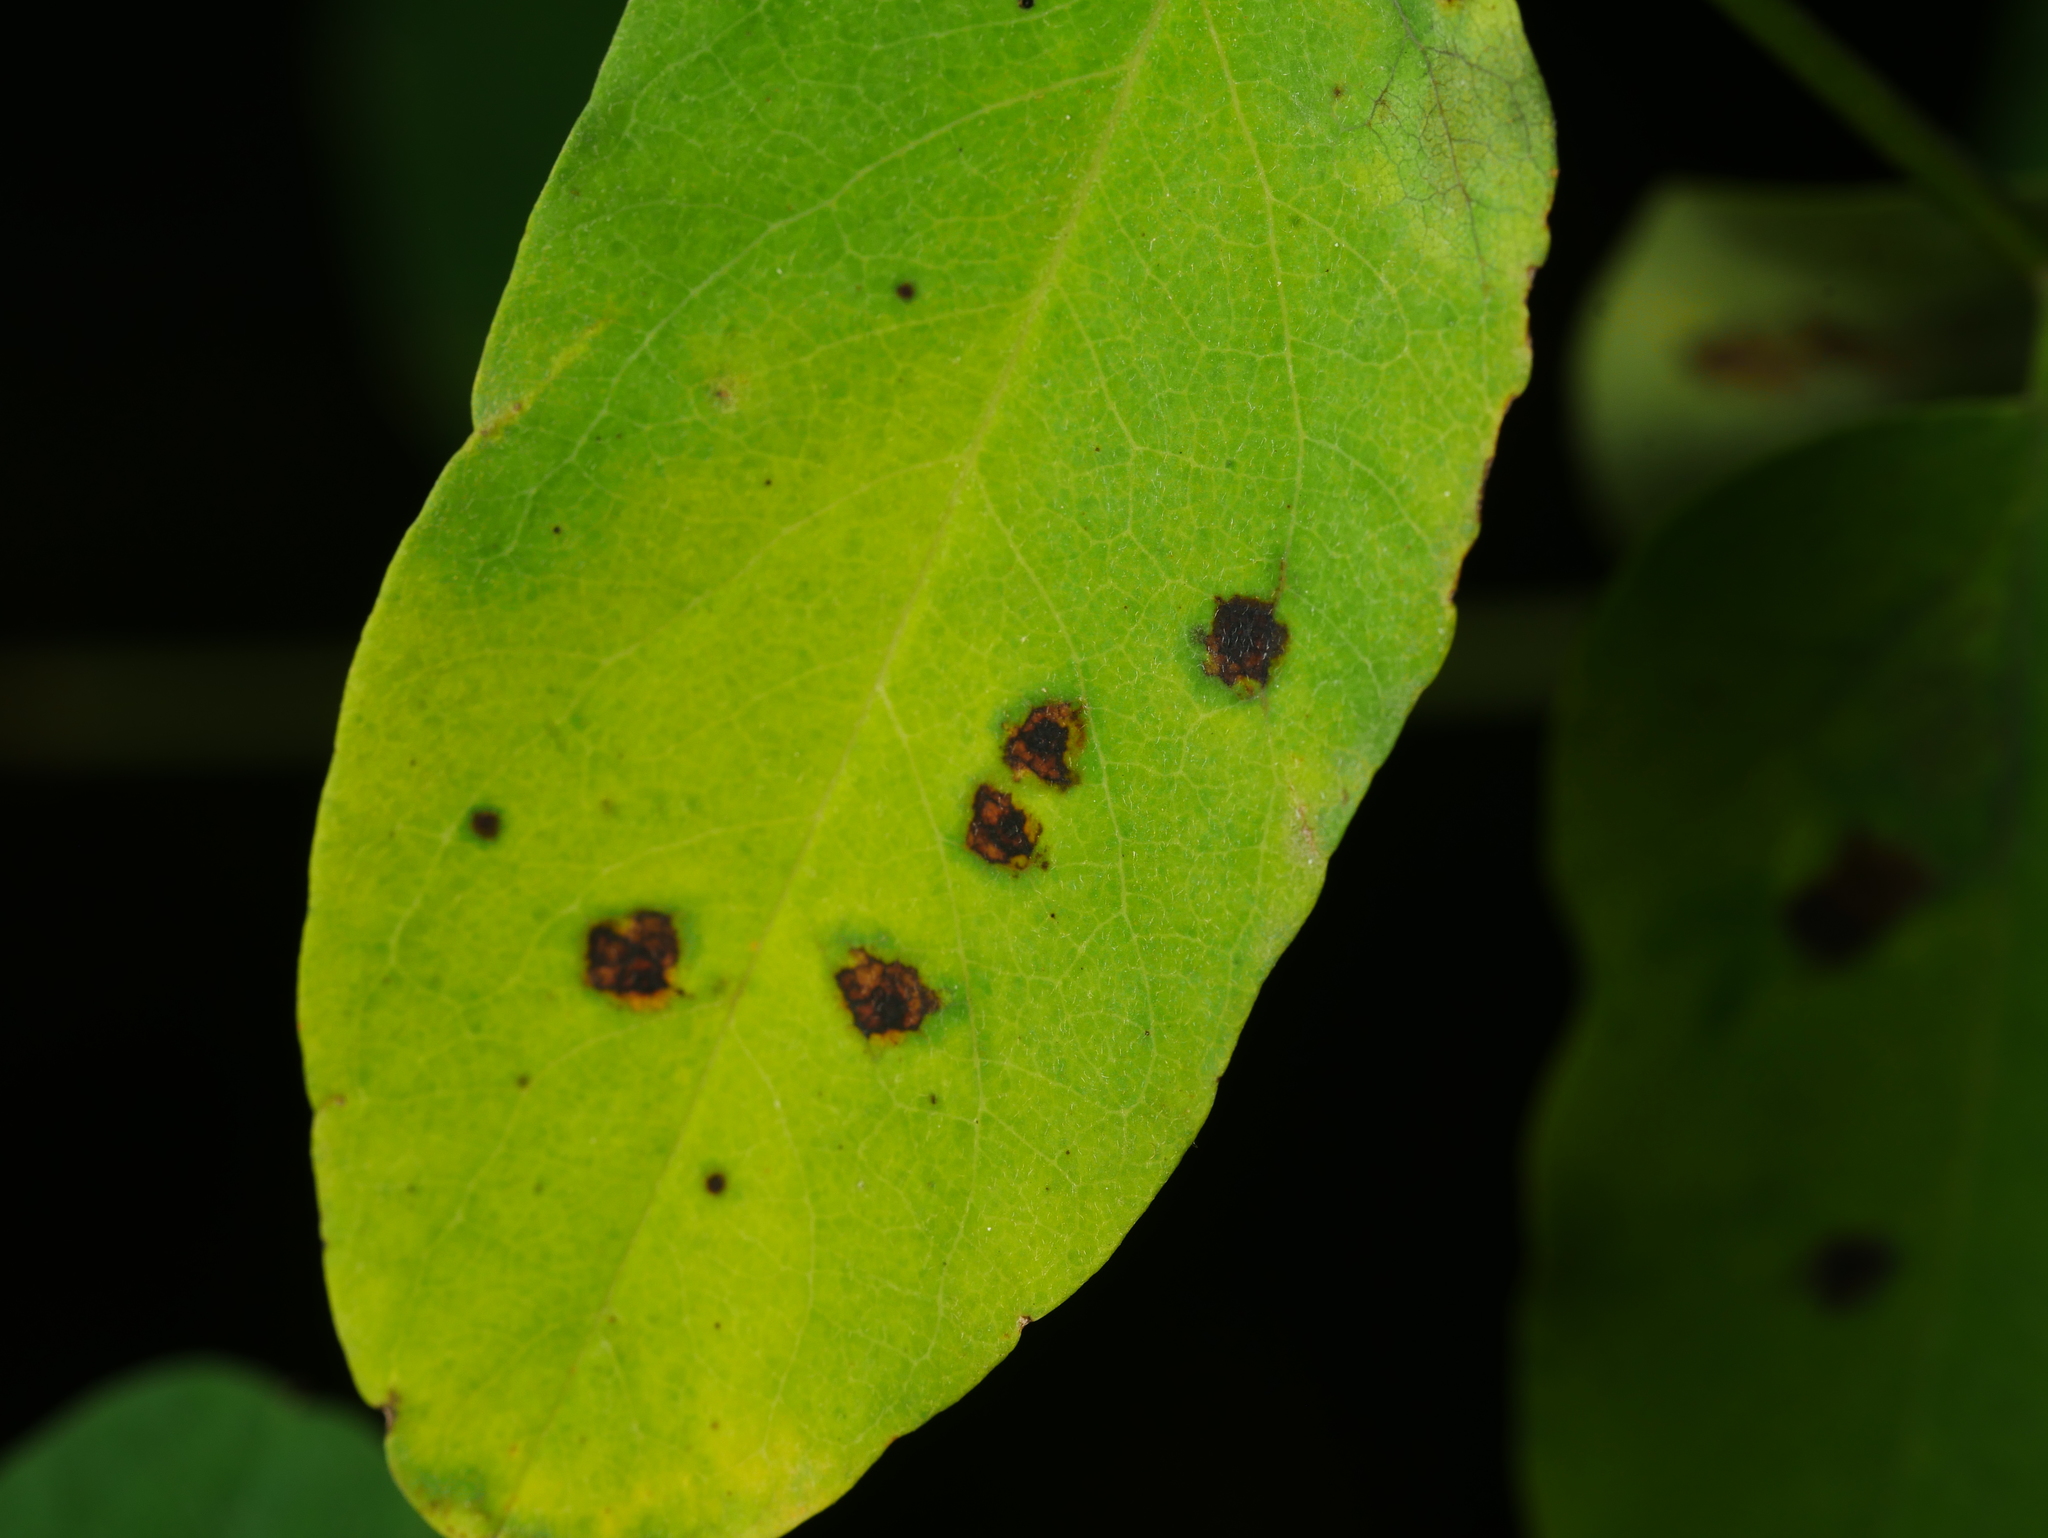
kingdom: Fungi
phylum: Ascomycota
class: Dothideomycetes
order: Mycosphaerellales
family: Mycosphaerellaceae
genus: Phloeospora
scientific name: Phloeospora robiniae
